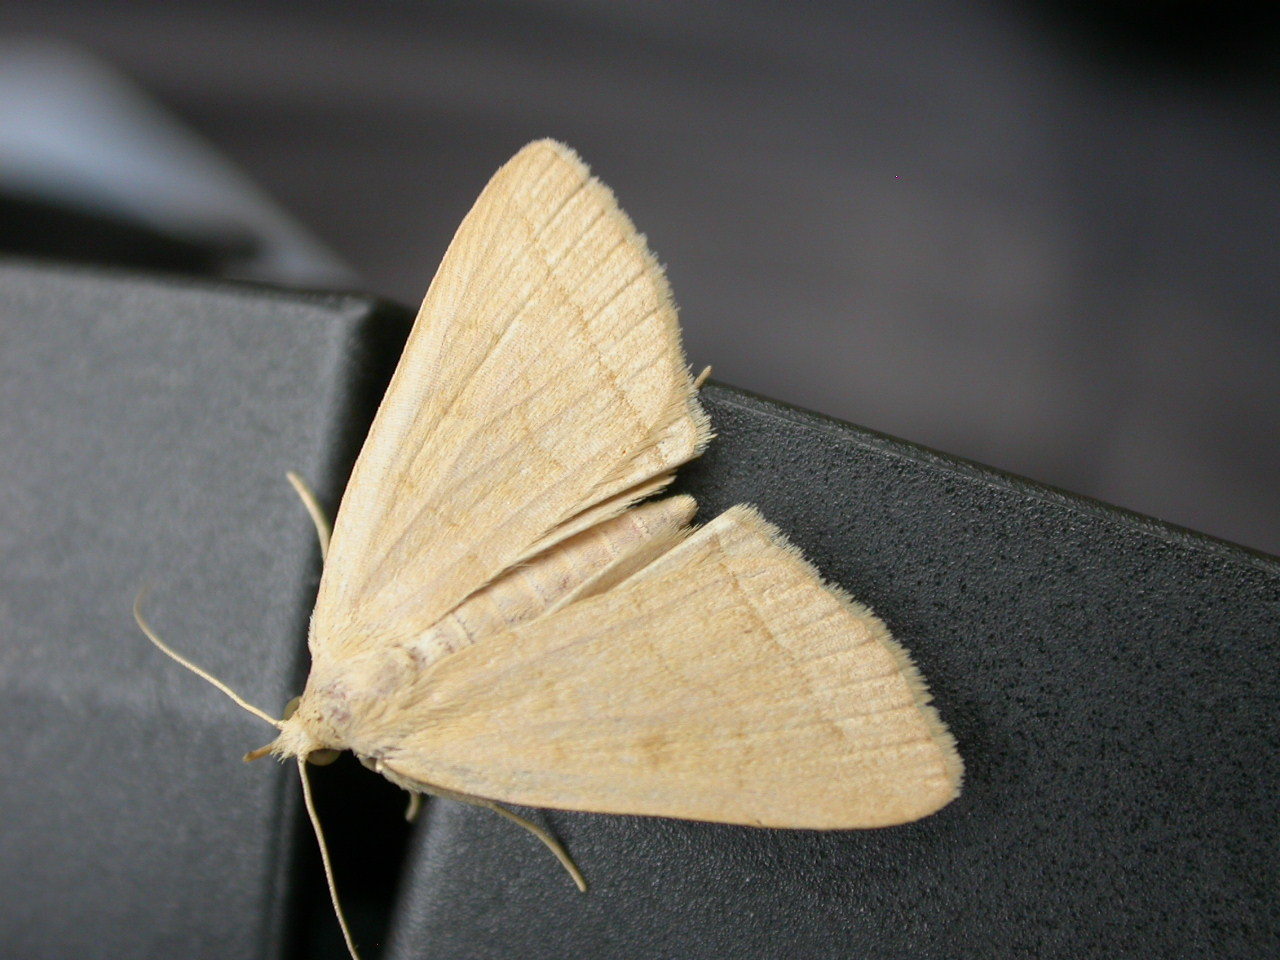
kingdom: Animalia
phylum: Arthropoda
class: Insecta
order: Lepidoptera
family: Erebidae
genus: Herminia
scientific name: Herminia tarsipennalis
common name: Fan-foot
